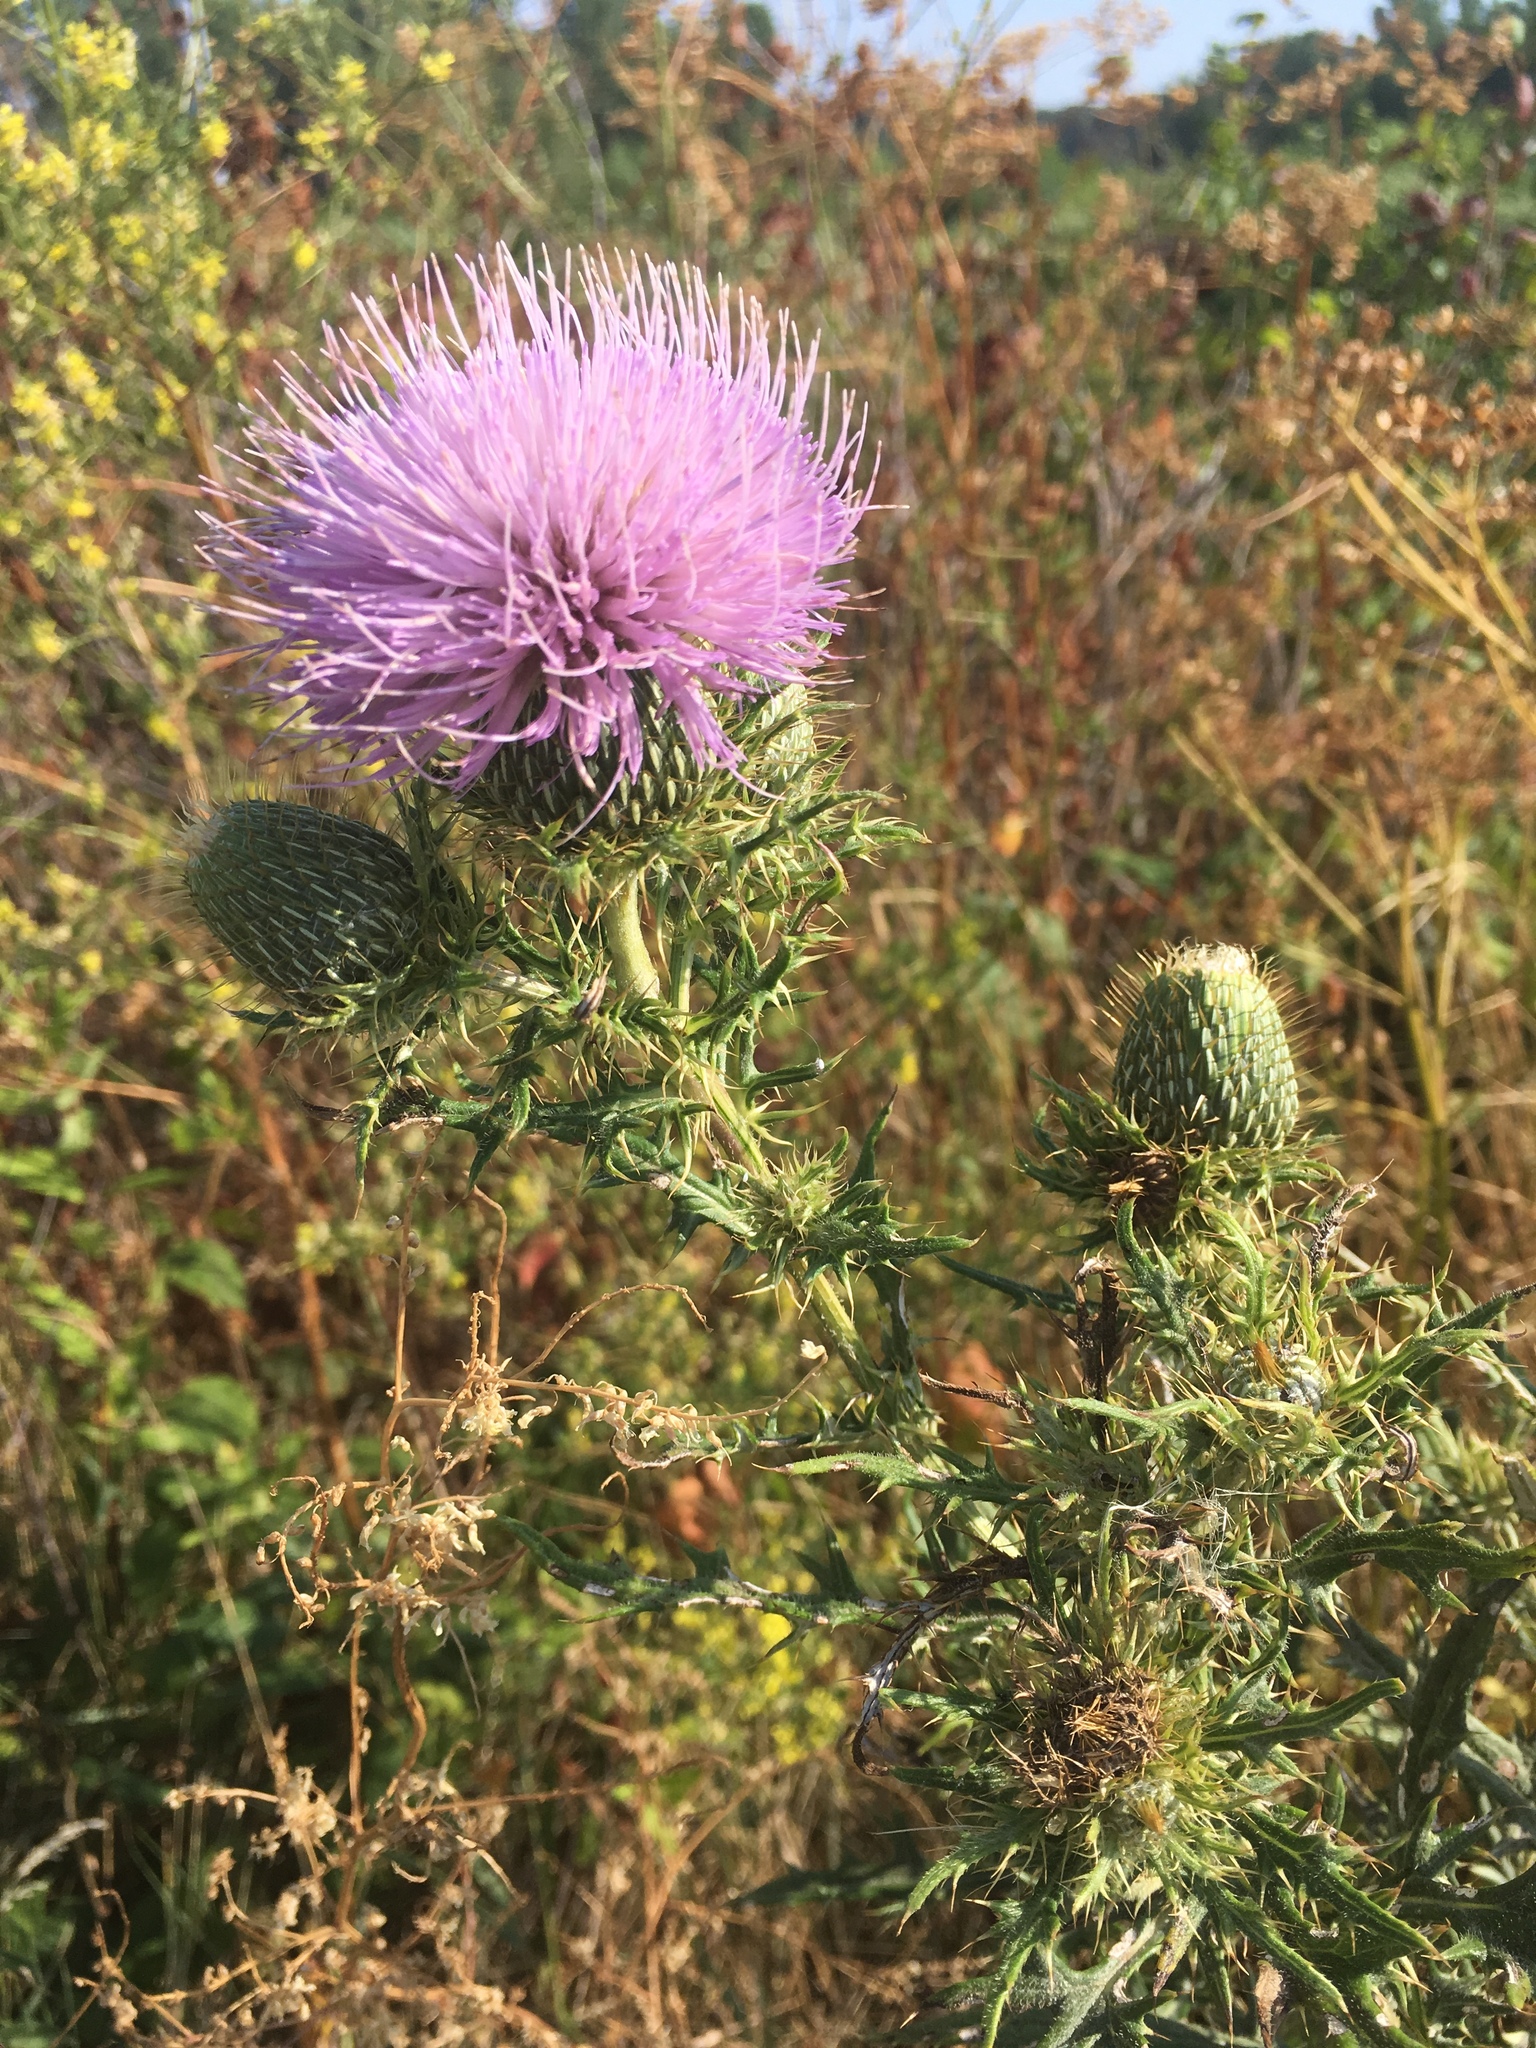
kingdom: Plantae
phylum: Tracheophyta
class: Magnoliopsida
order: Asterales
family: Asteraceae
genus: Cirsium
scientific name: Cirsium vulgare
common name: Bull thistle
